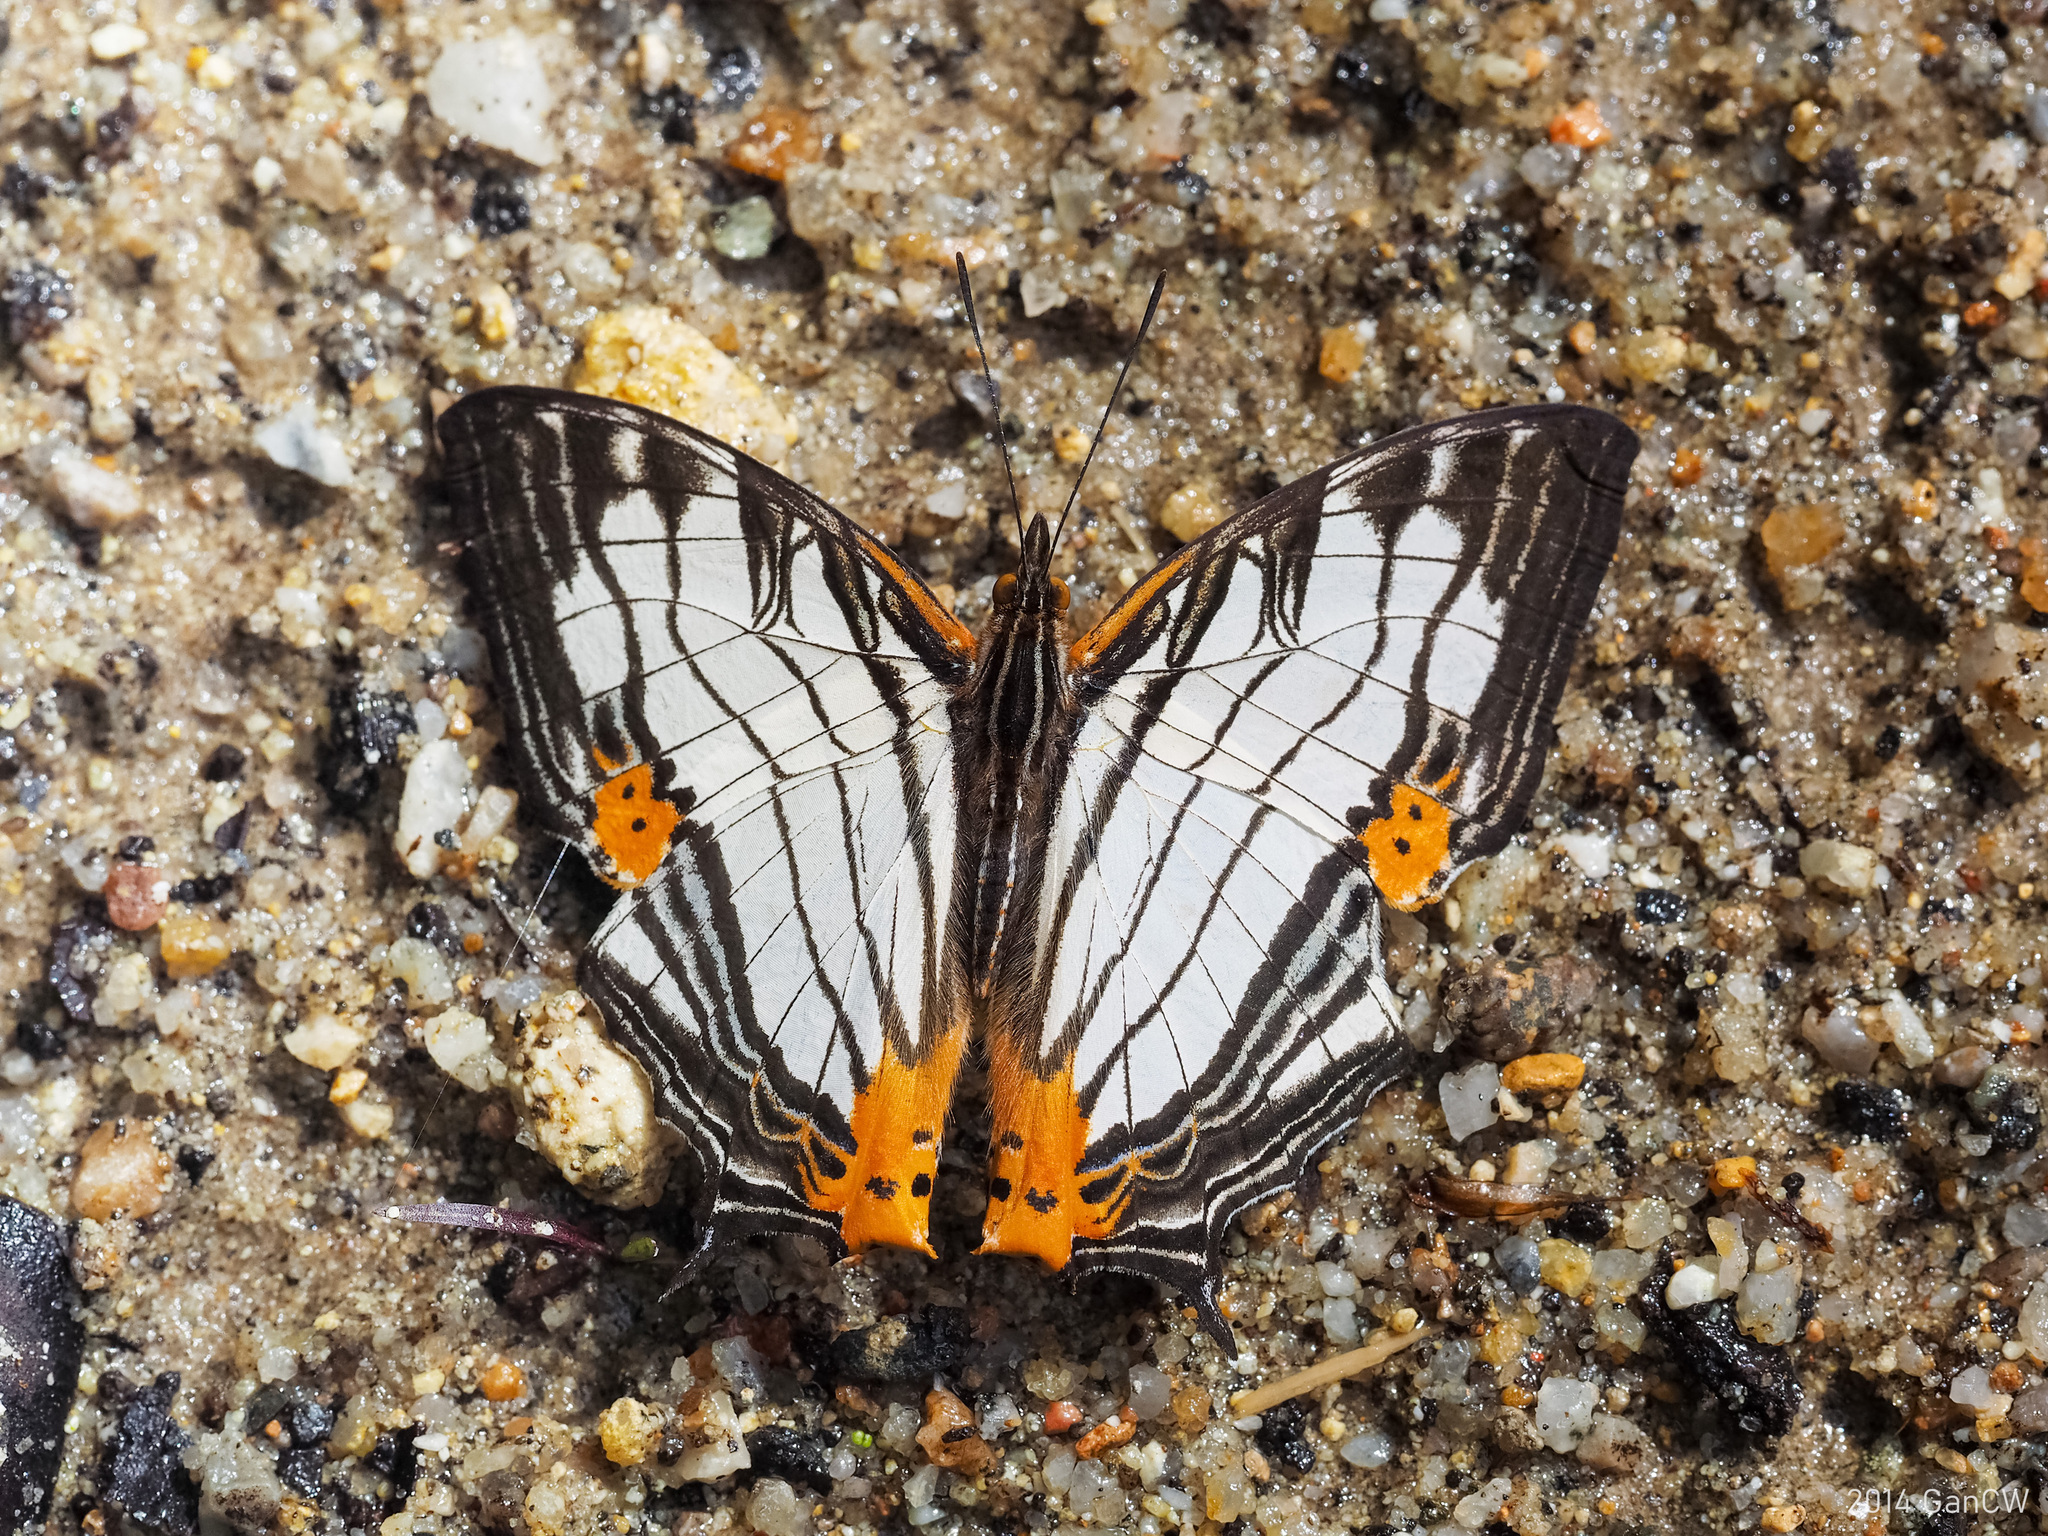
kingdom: Animalia
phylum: Arthropoda
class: Insecta
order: Lepidoptera
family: Nymphalidae
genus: Cyrestis
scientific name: Cyrestis maenalis
